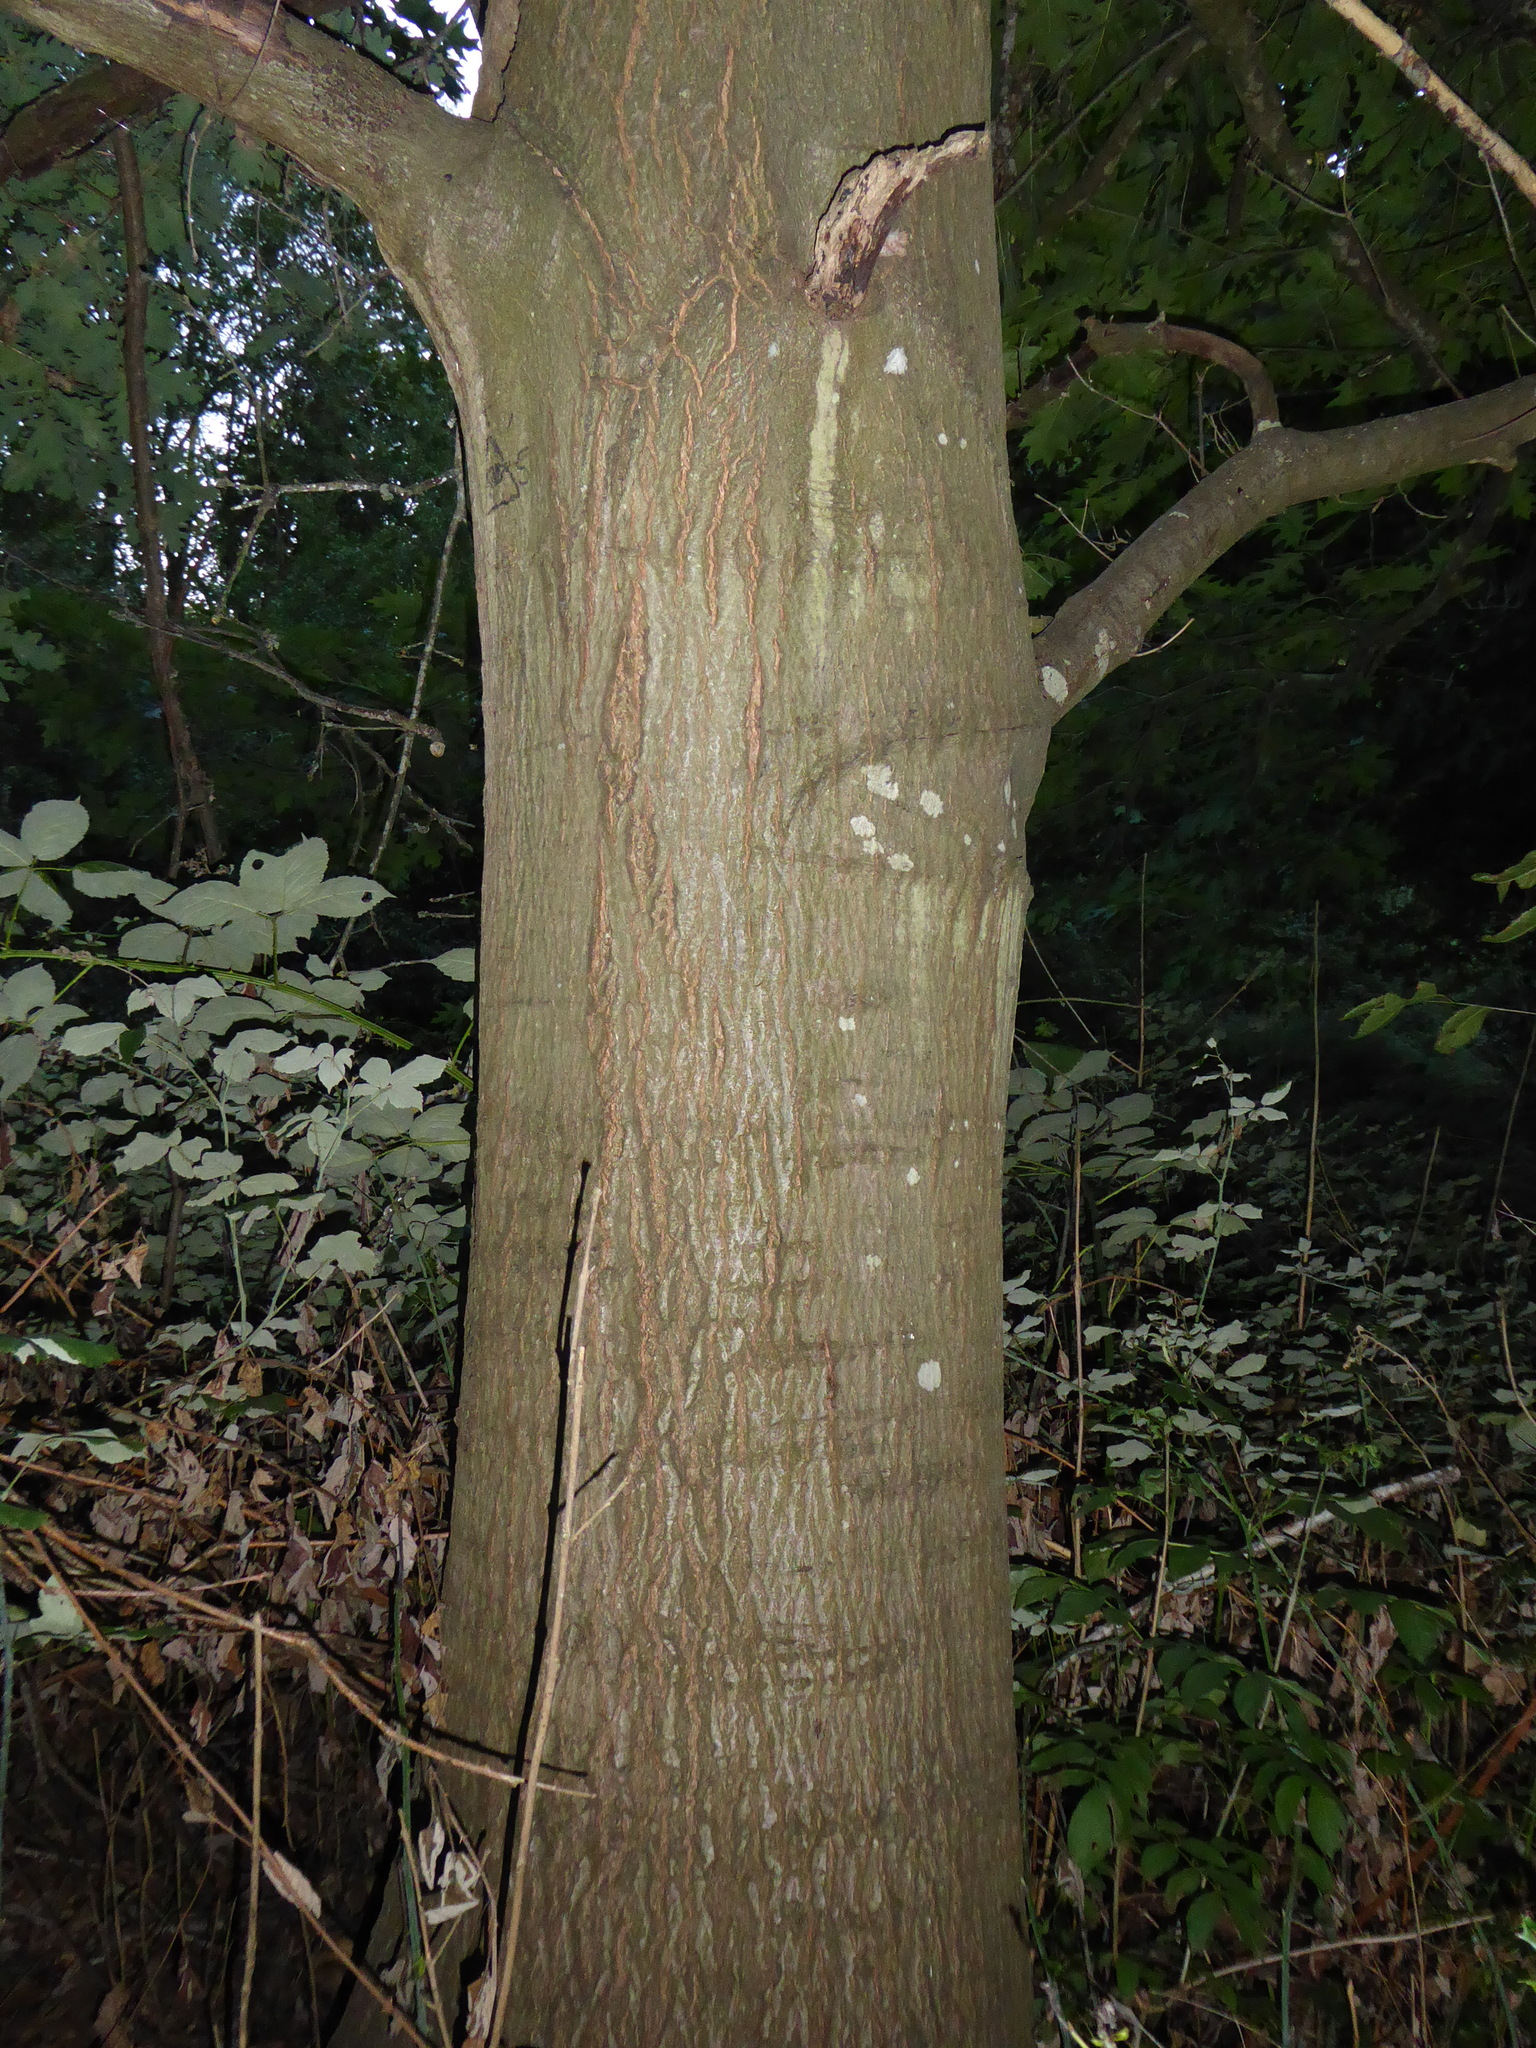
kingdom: Plantae
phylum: Tracheophyta
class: Magnoliopsida
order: Fagales
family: Fagaceae
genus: Quercus
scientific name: Quercus rubra
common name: Red oak
